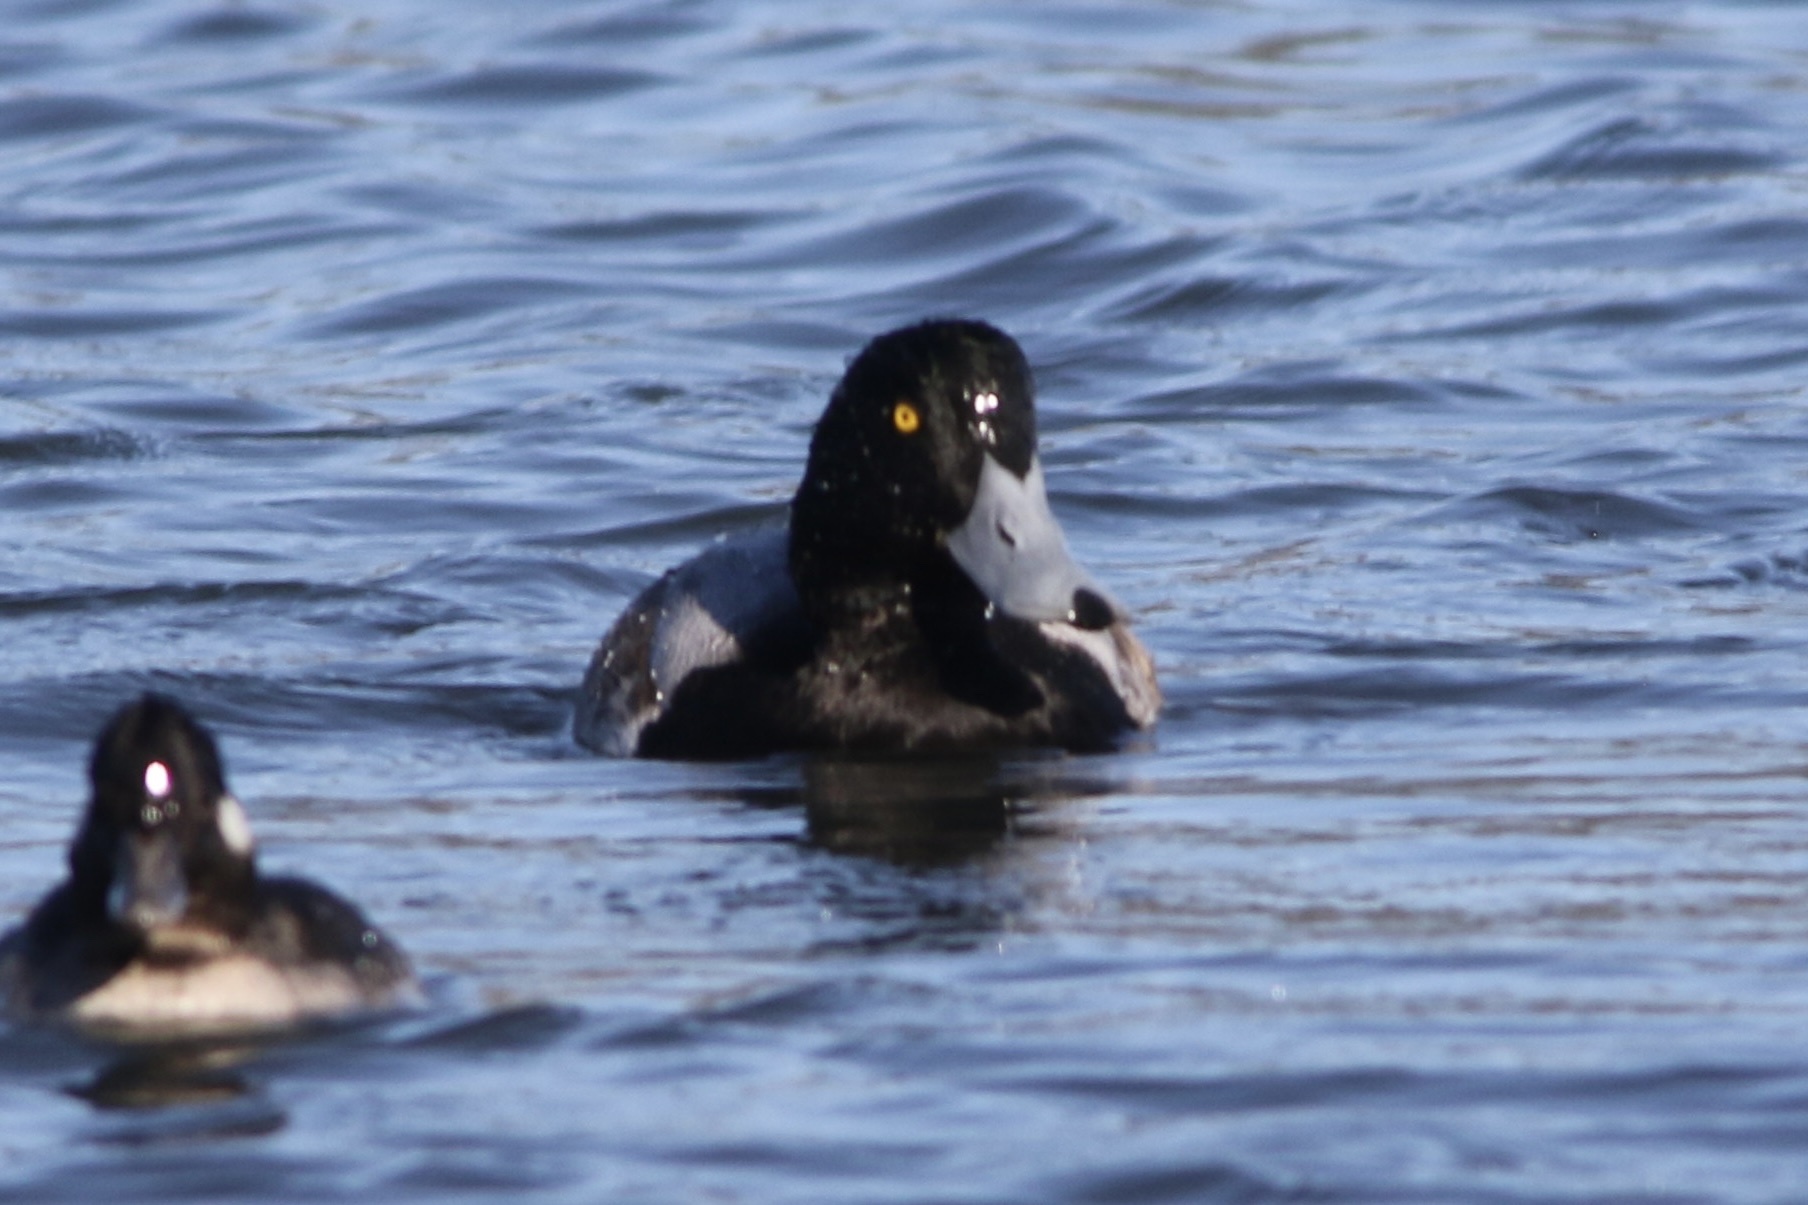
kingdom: Animalia
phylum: Chordata
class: Aves
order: Anseriformes
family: Anatidae
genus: Aythya
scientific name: Aythya marila
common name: Greater scaup
